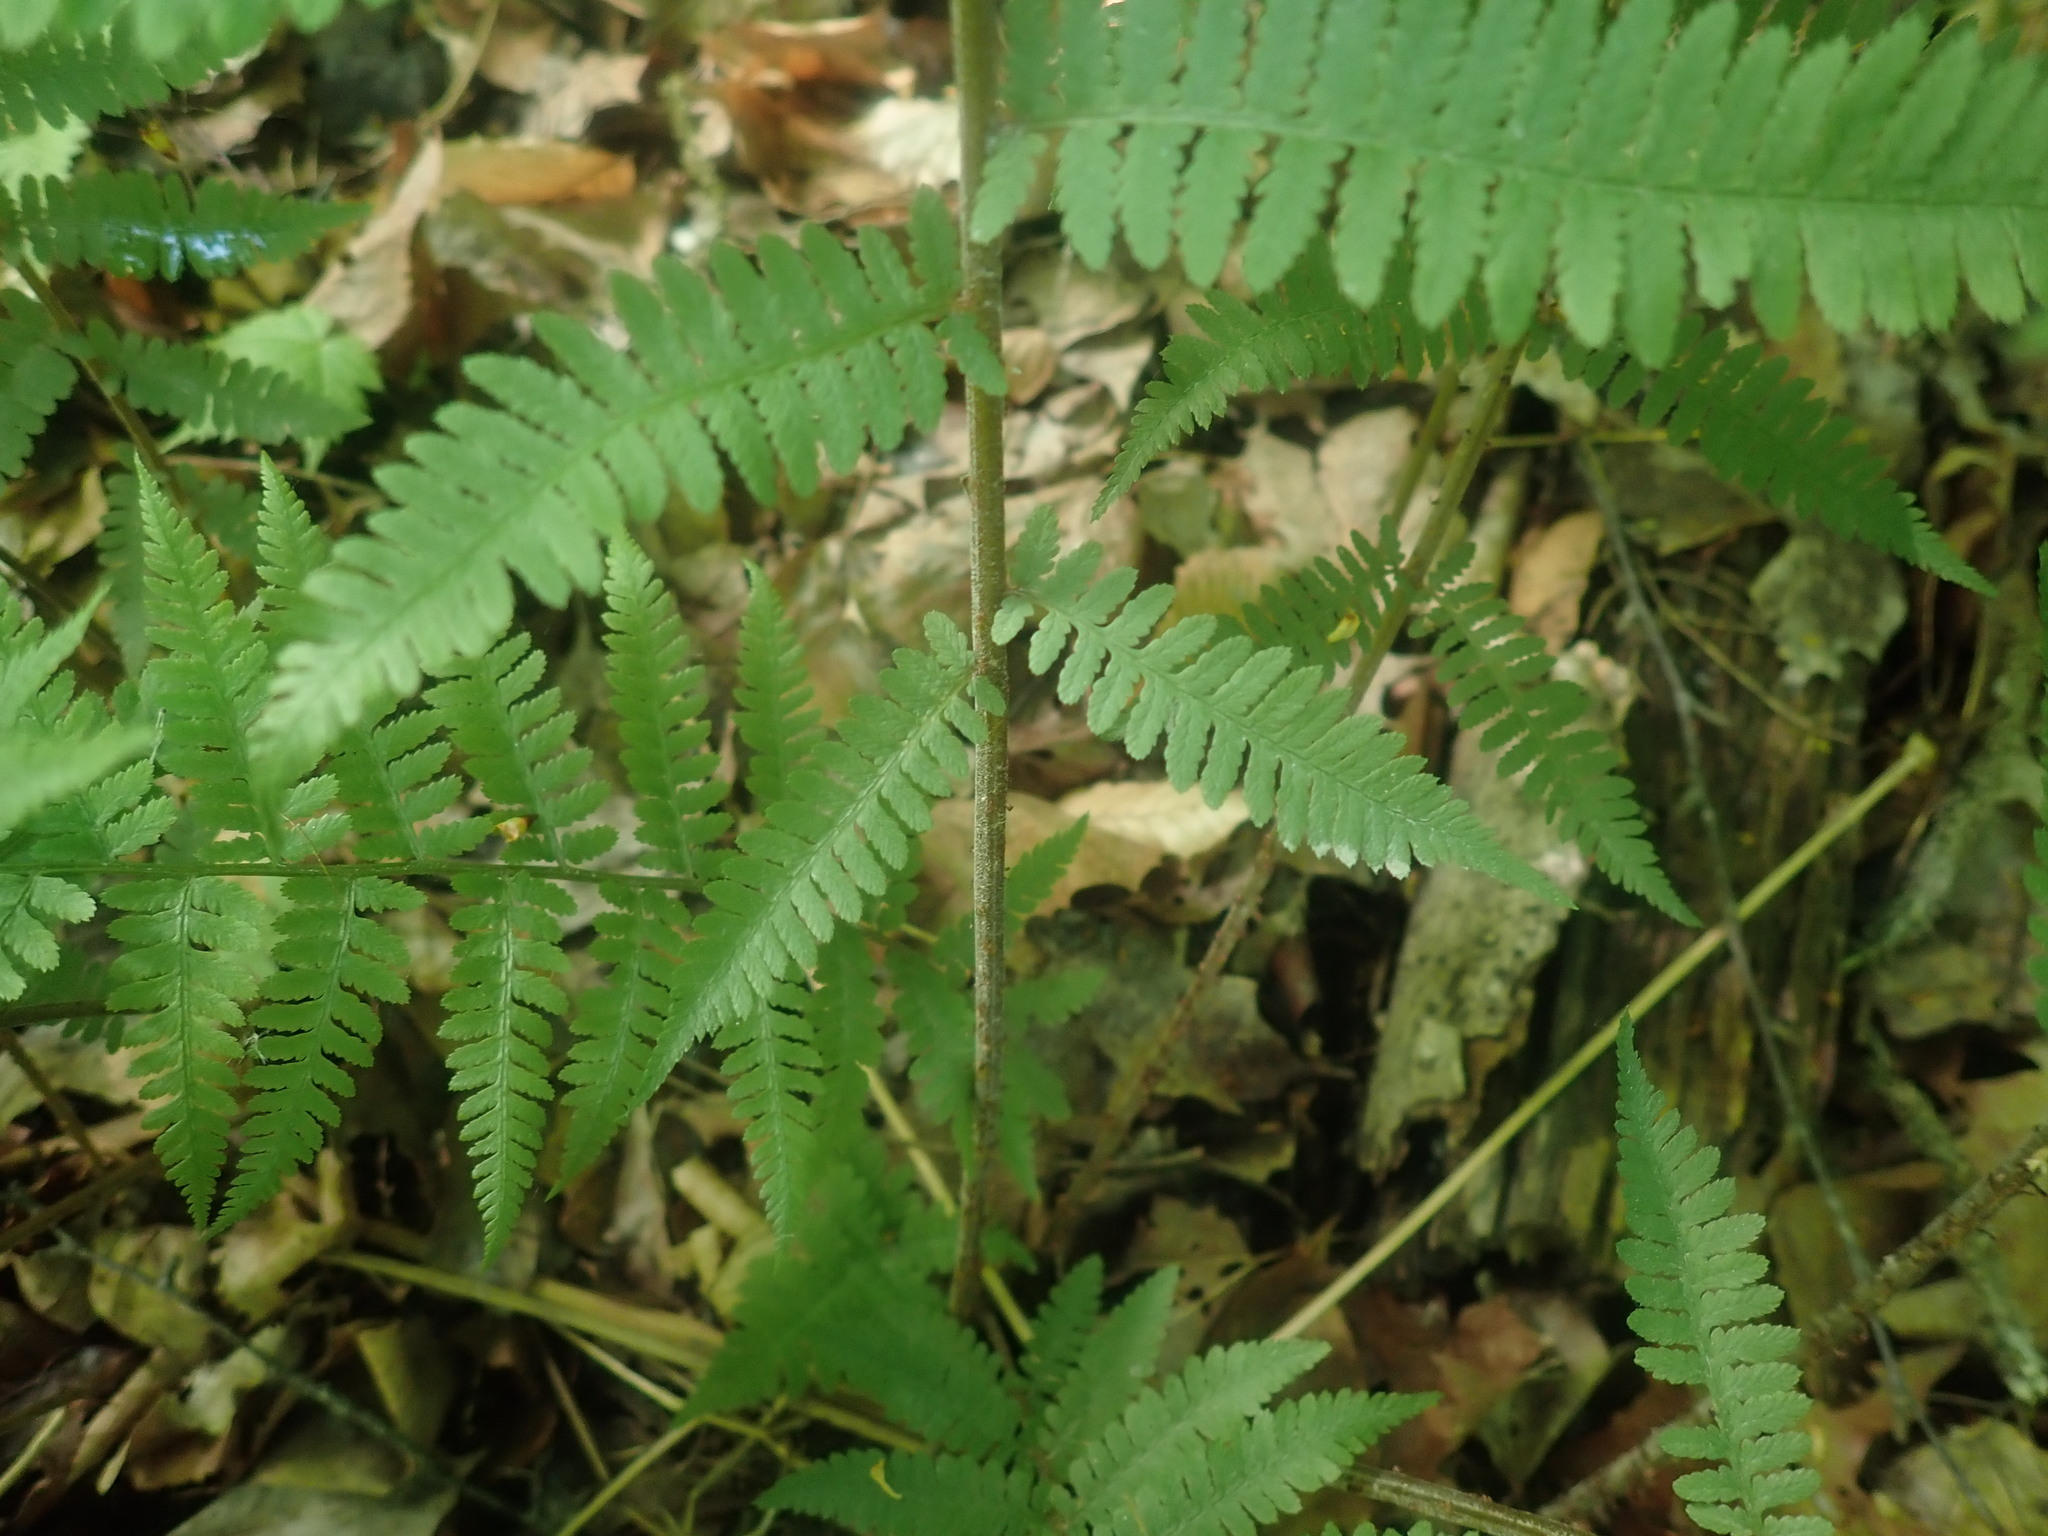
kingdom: Plantae
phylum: Tracheophyta
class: Polypodiopsida
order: Polypodiales
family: Athyriaceae
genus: Athyrium
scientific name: Athyrium angustum
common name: Northern lady fern
